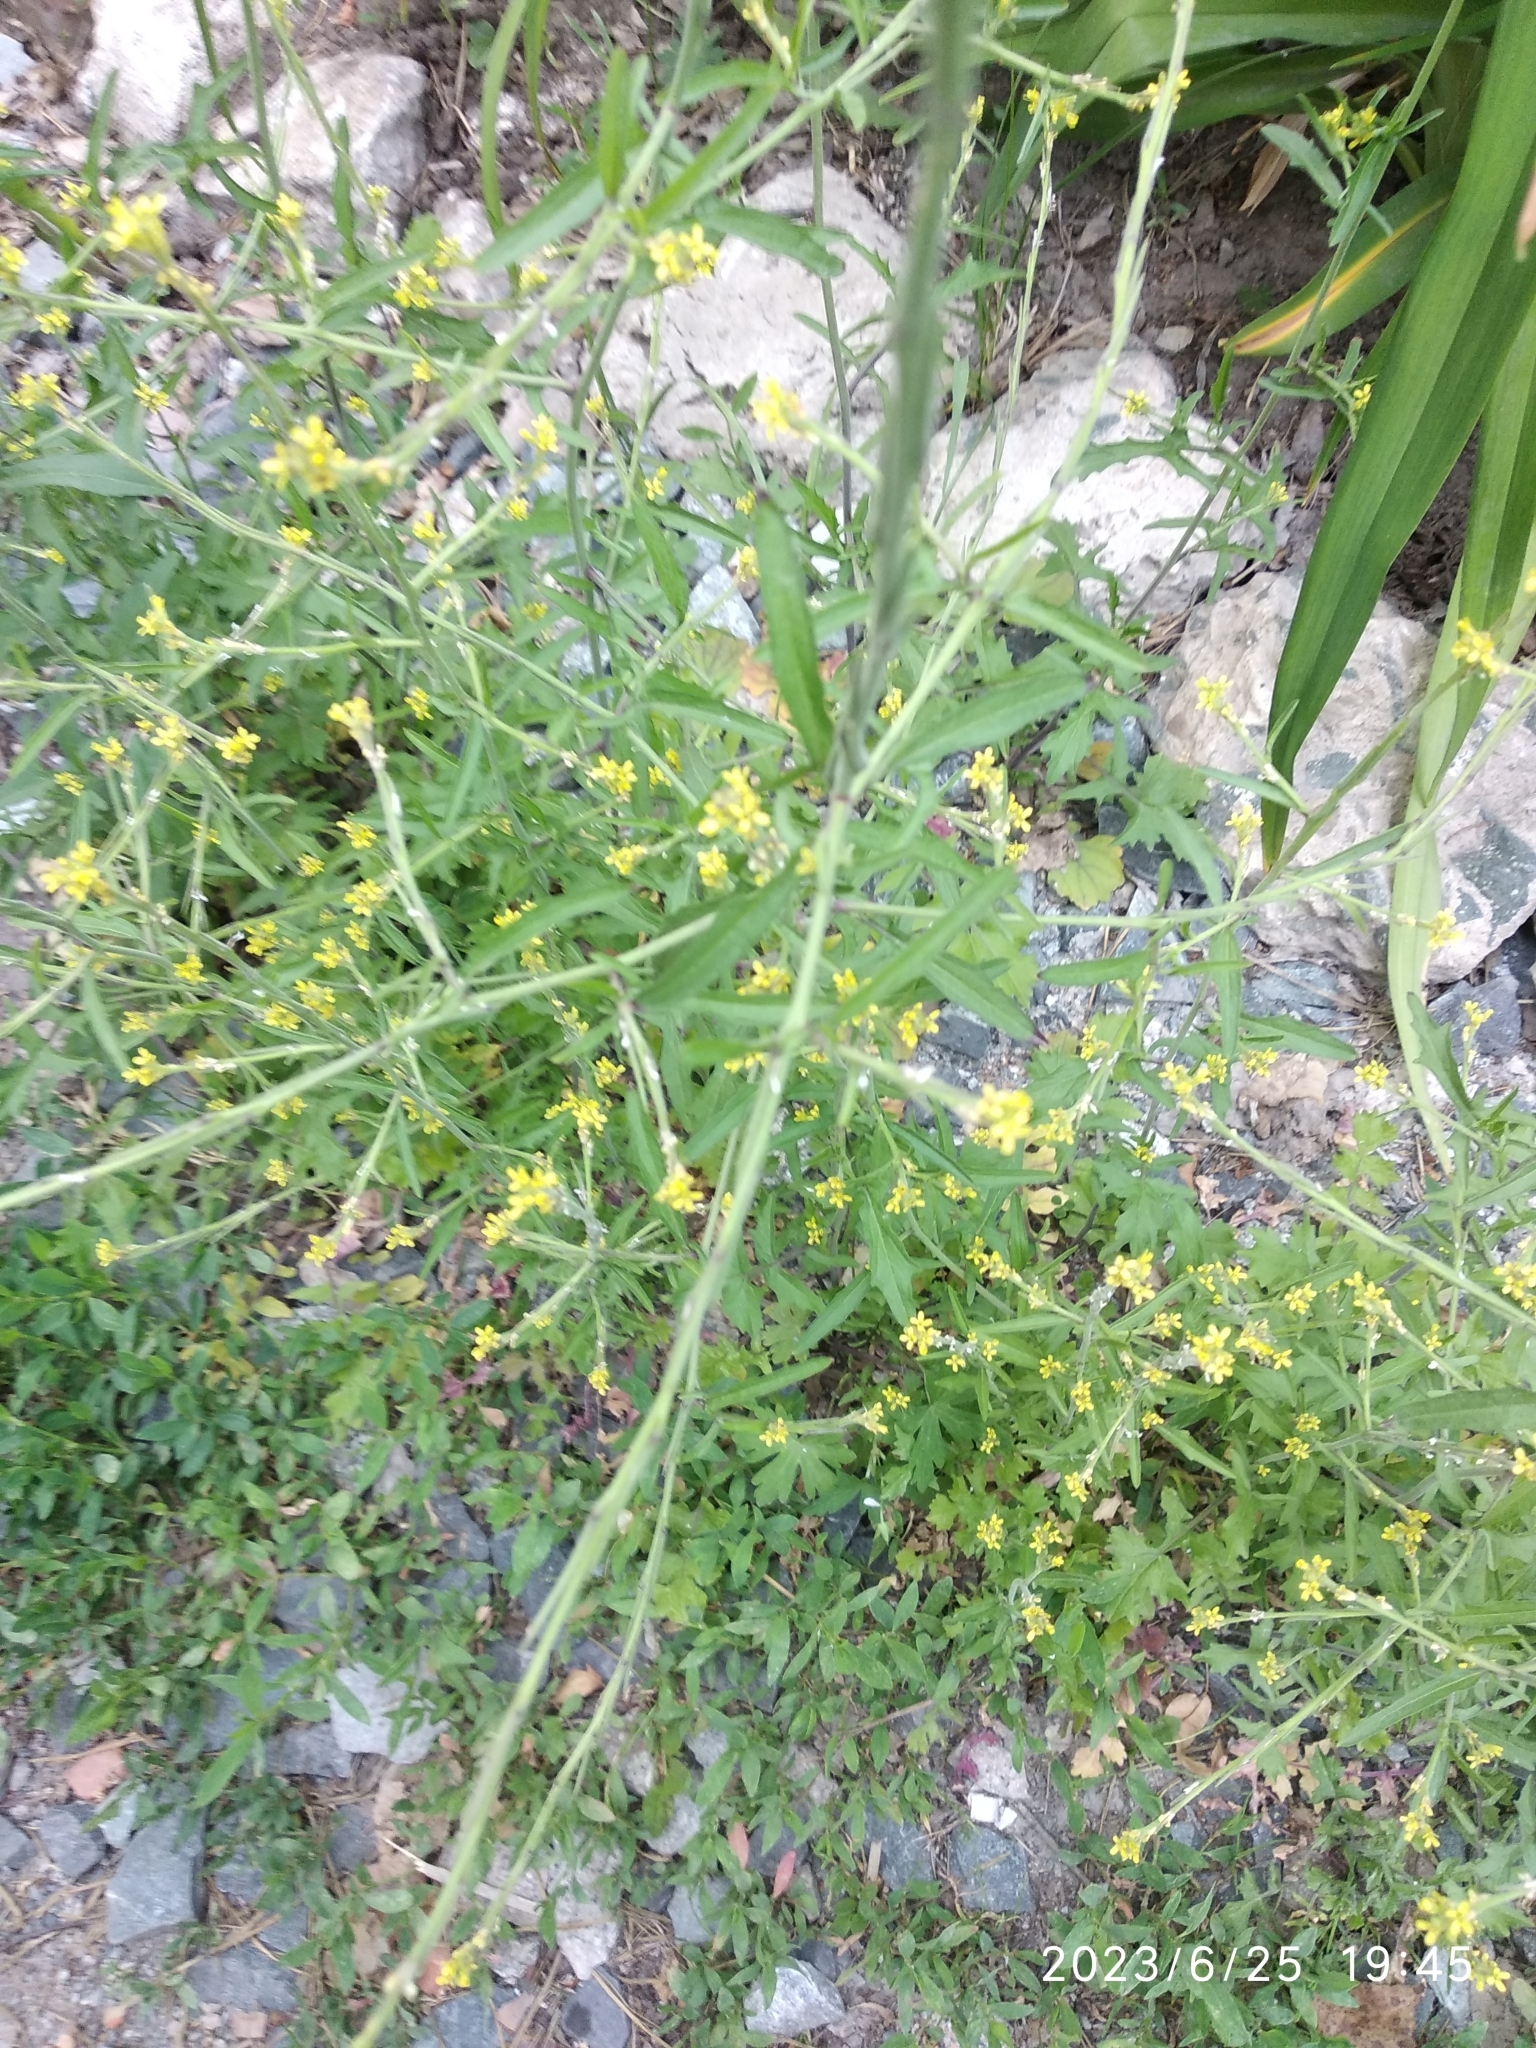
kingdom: Plantae
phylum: Tracheophyta
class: Magnoliopsida
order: Brassicales
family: Brassicaceae
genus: Sisymbrium
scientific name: Sisymbrium officinale
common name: Hedge mustard
